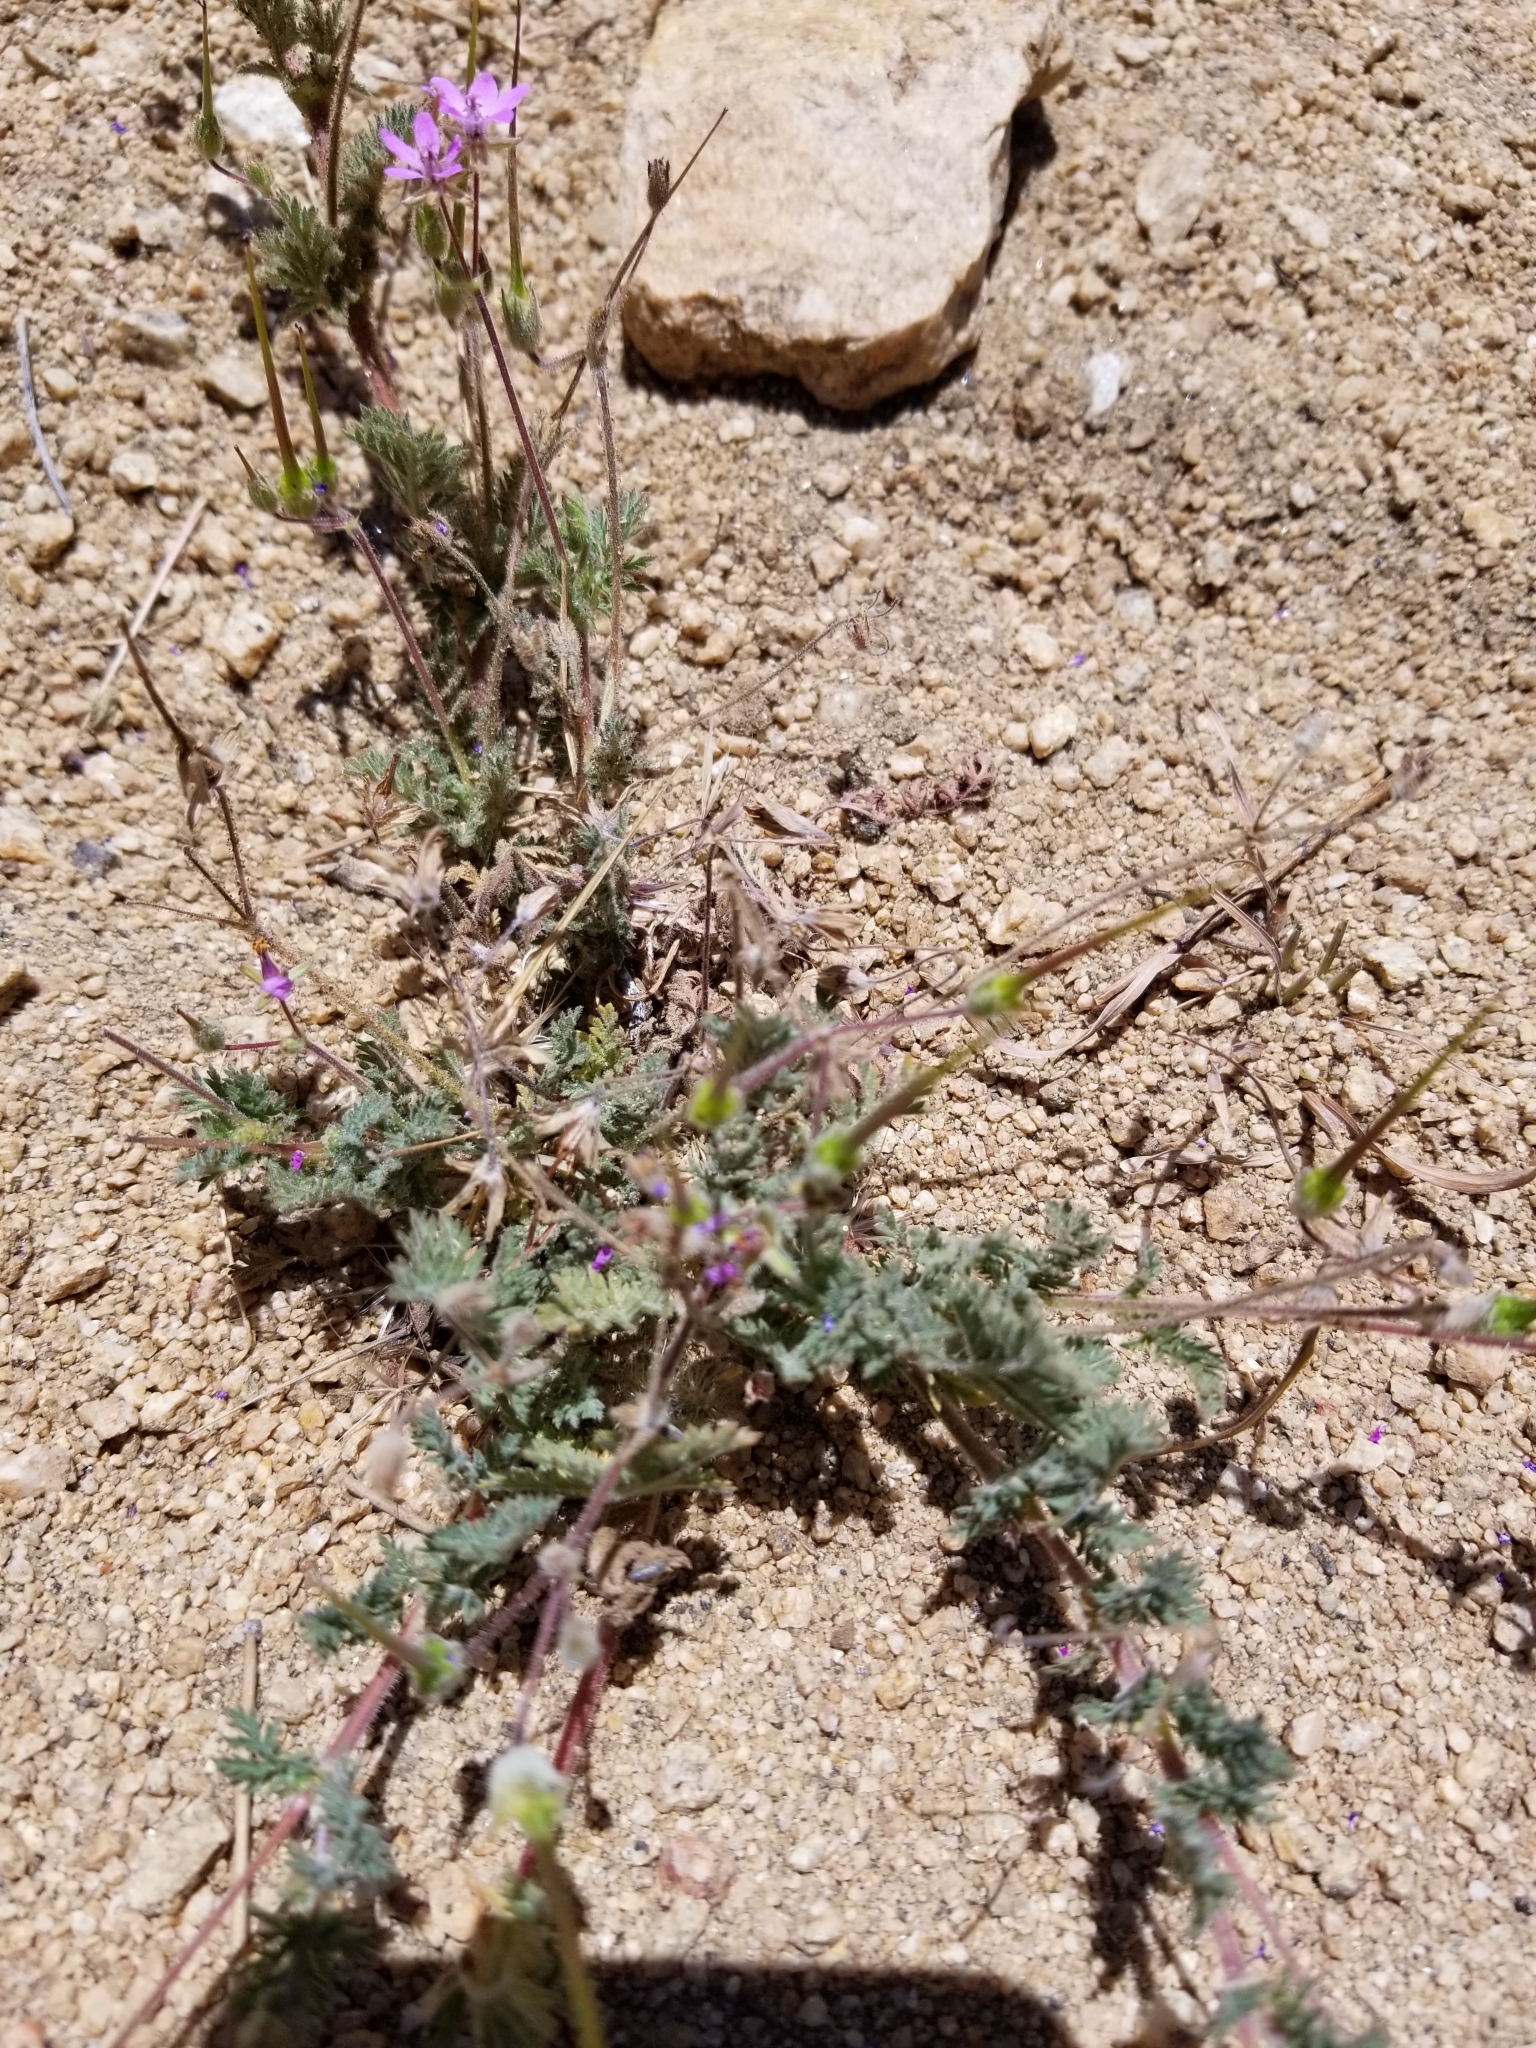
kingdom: Plantae
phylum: Tracheophyta
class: Magnoliopsida
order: Geraniales
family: Geraniaceae
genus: Erodium
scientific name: Erodium cicutarium
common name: Common stork's-bill
